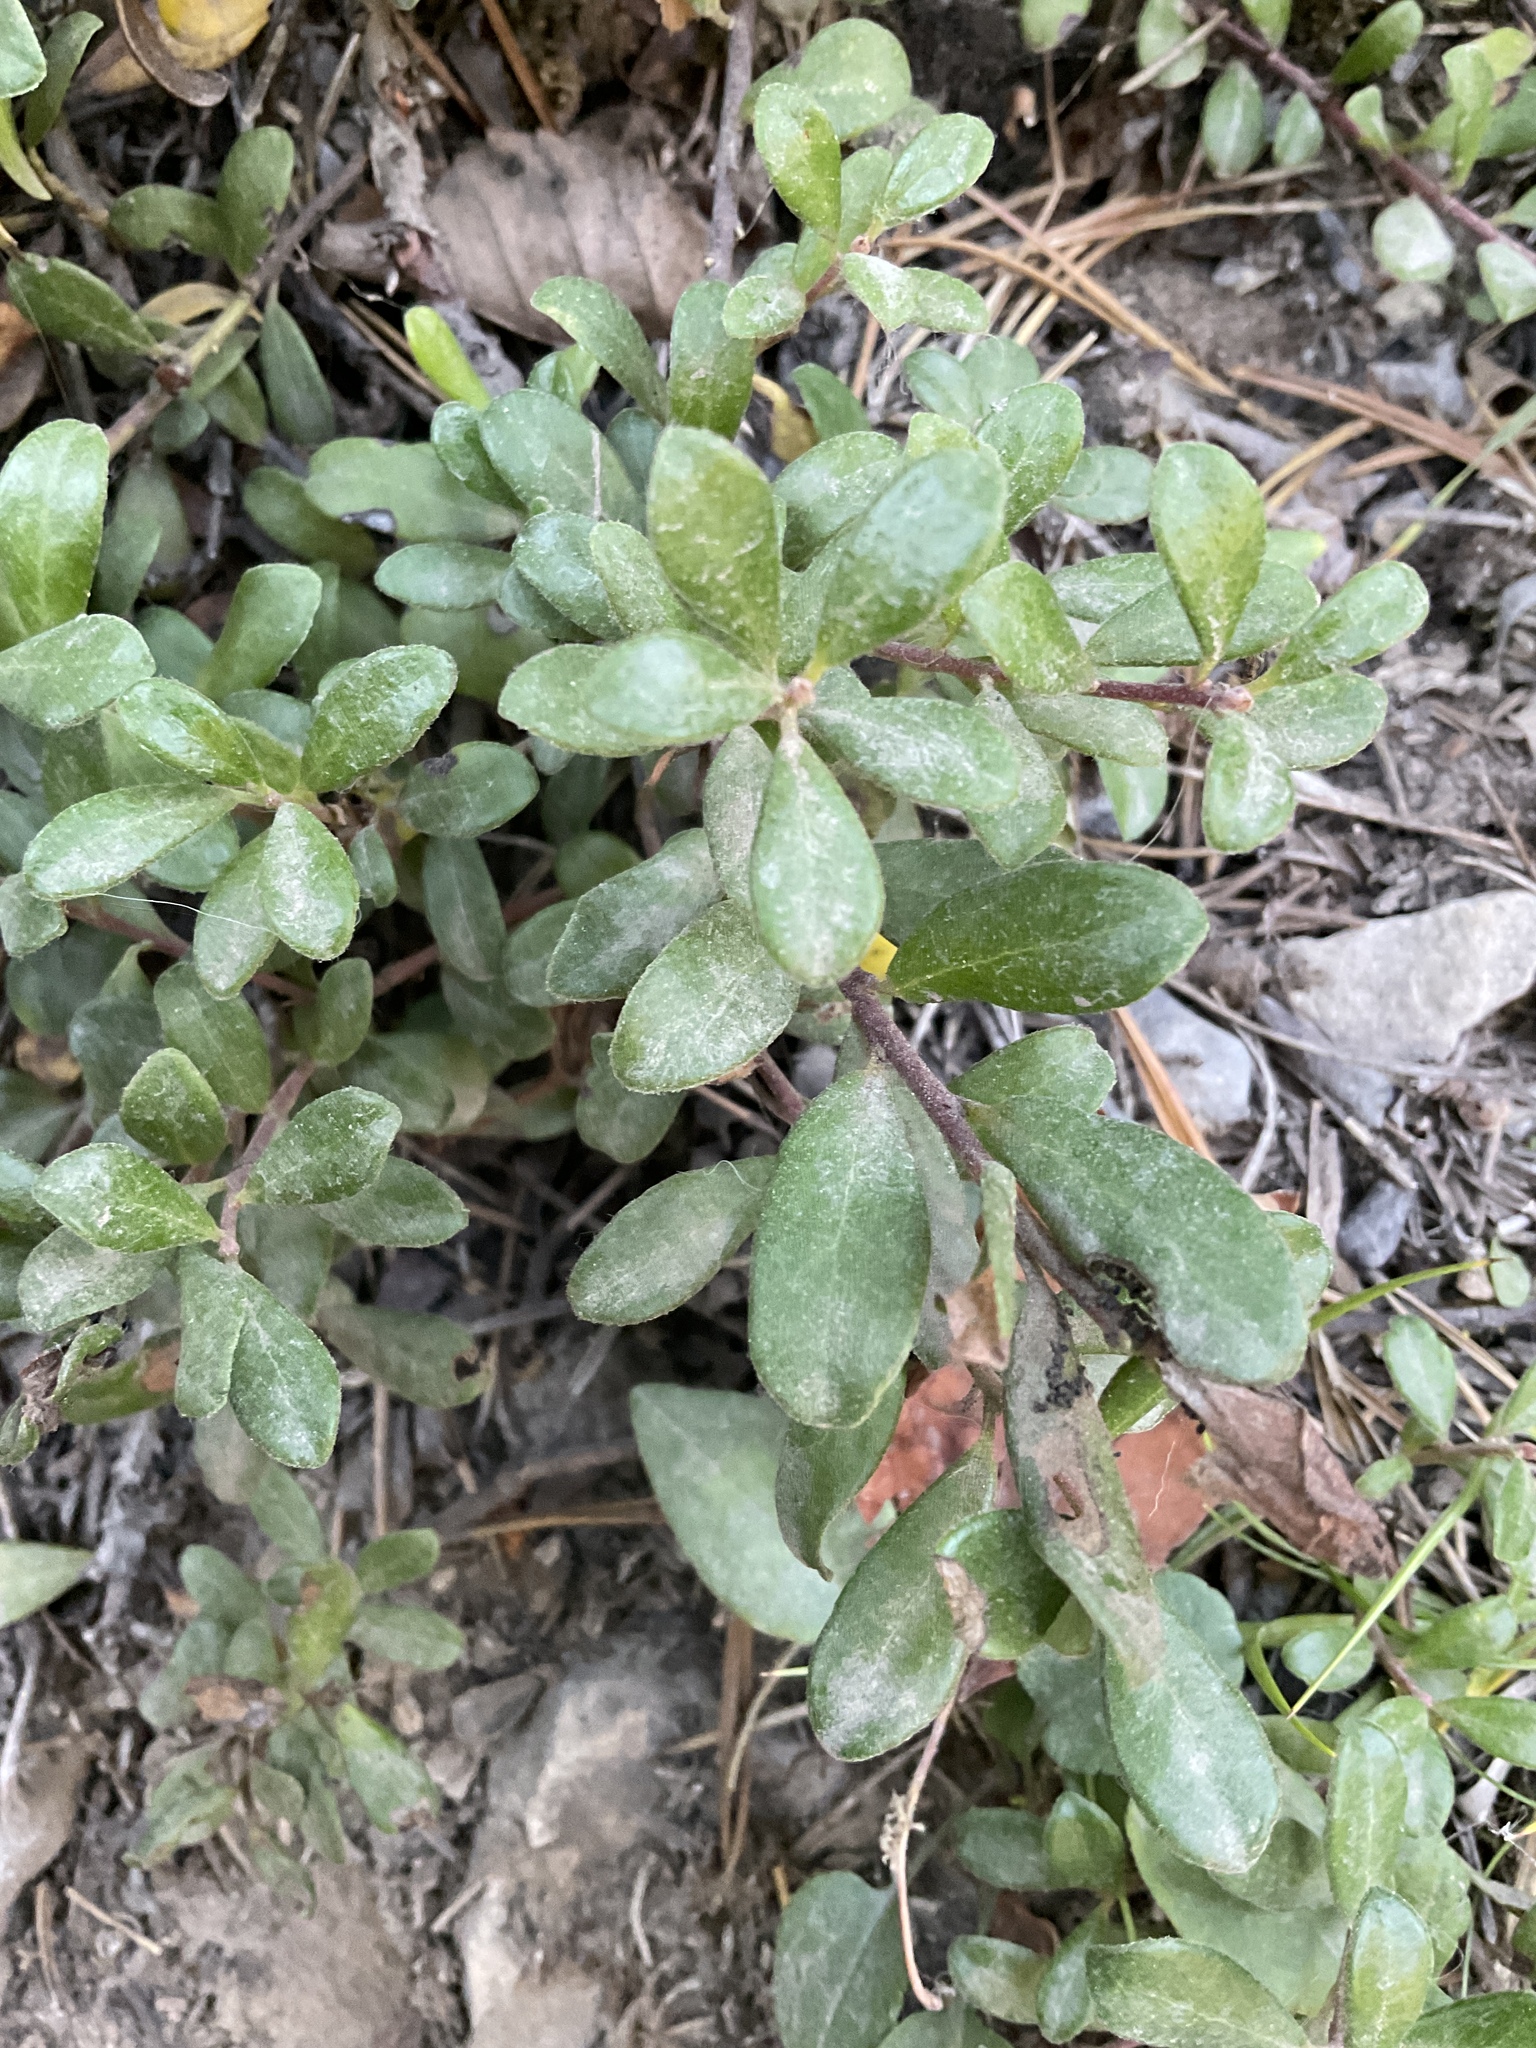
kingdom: Plantae
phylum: Tracheophyta
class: Magnoliopsida
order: Ericales
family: Ericaceae
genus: Arctostaphylos
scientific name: Arctostaphylos uva-ursi
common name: Bearberry
